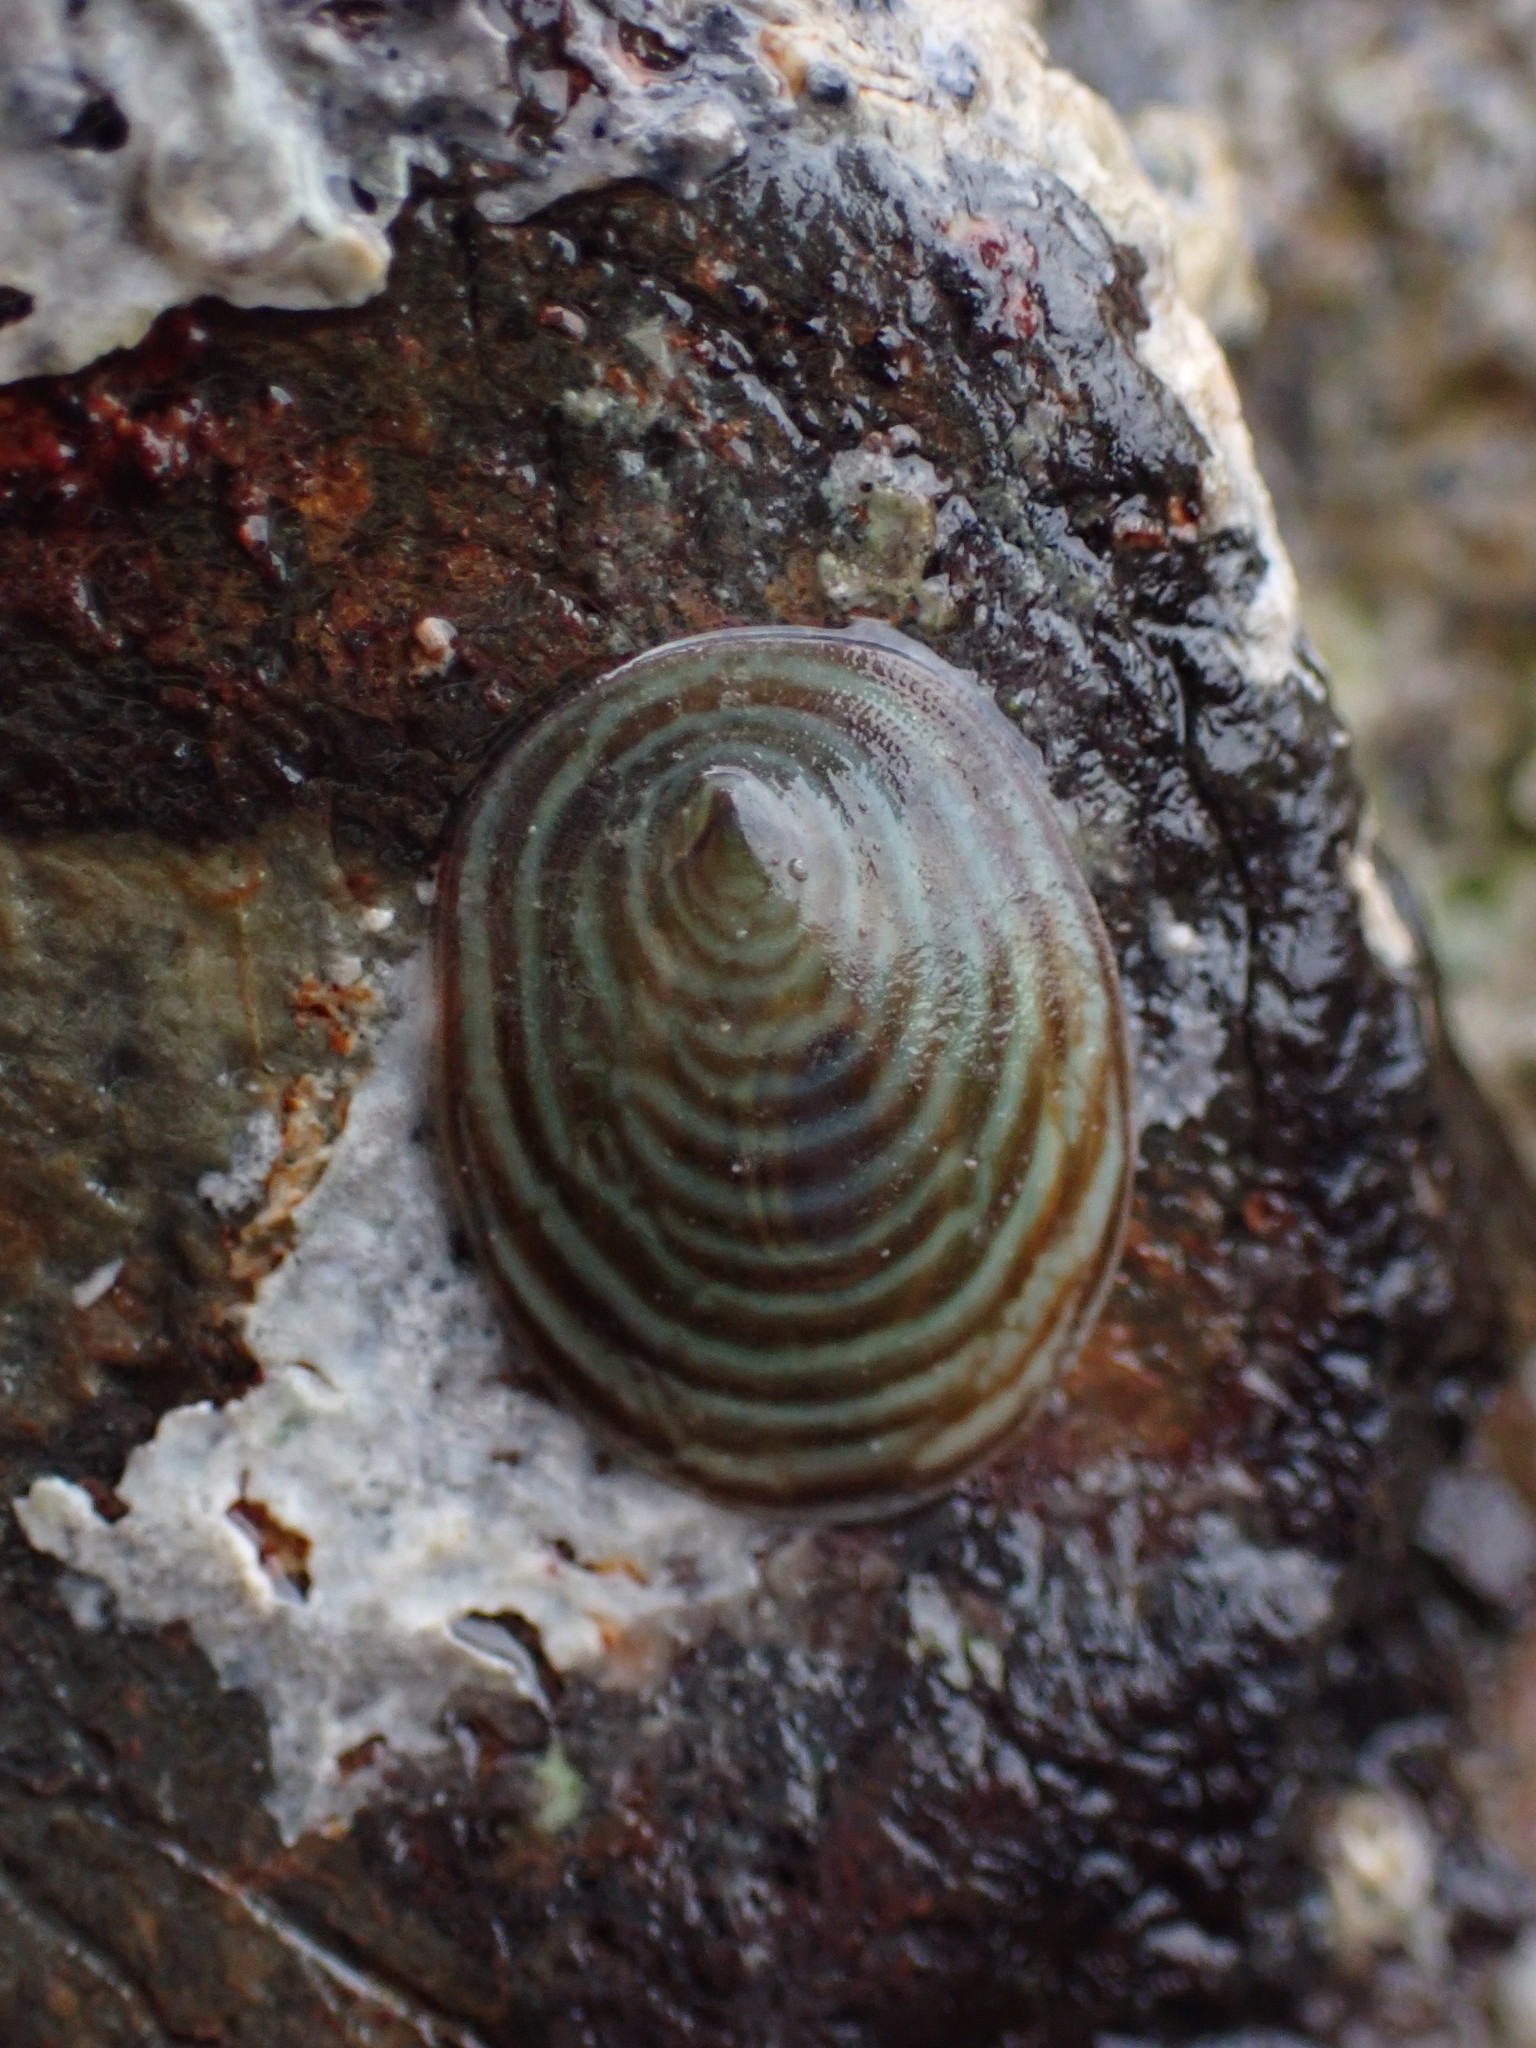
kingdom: Animalia
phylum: Mollusca
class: Gastropoda
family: Lottiidae
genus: Atalacmea
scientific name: Atalacmea fragilis
